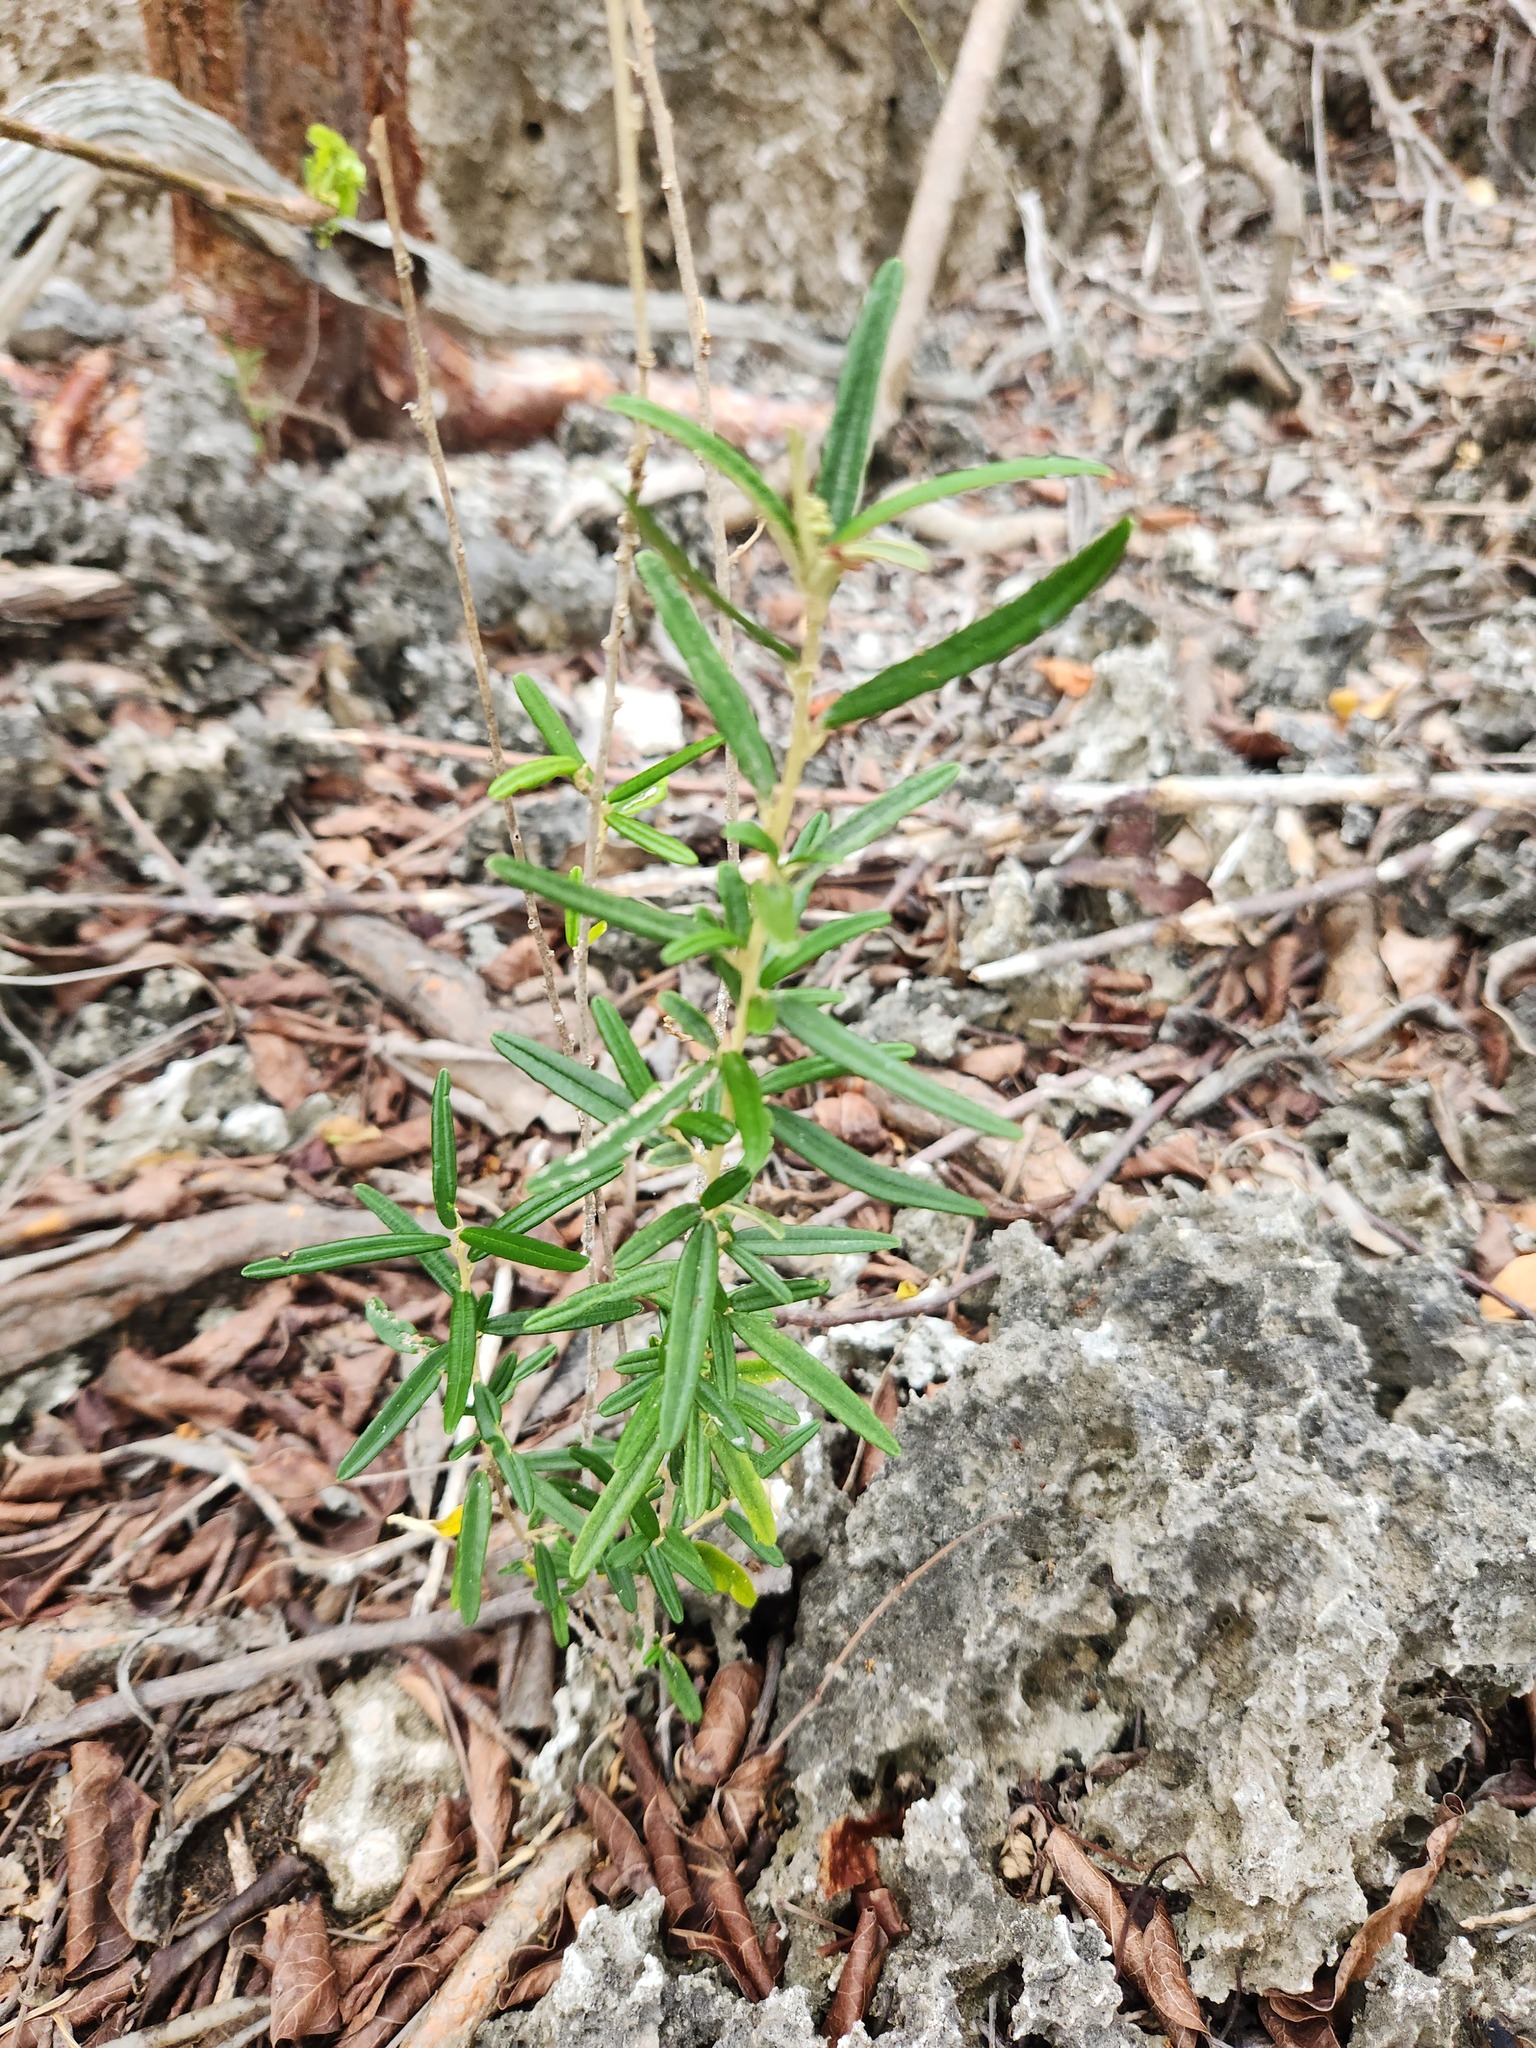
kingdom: Plantae
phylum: Tracheophyta
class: Magnoliopsida
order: Malpighiales
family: Euphorbiaceae
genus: Croton
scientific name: Croton linearis
